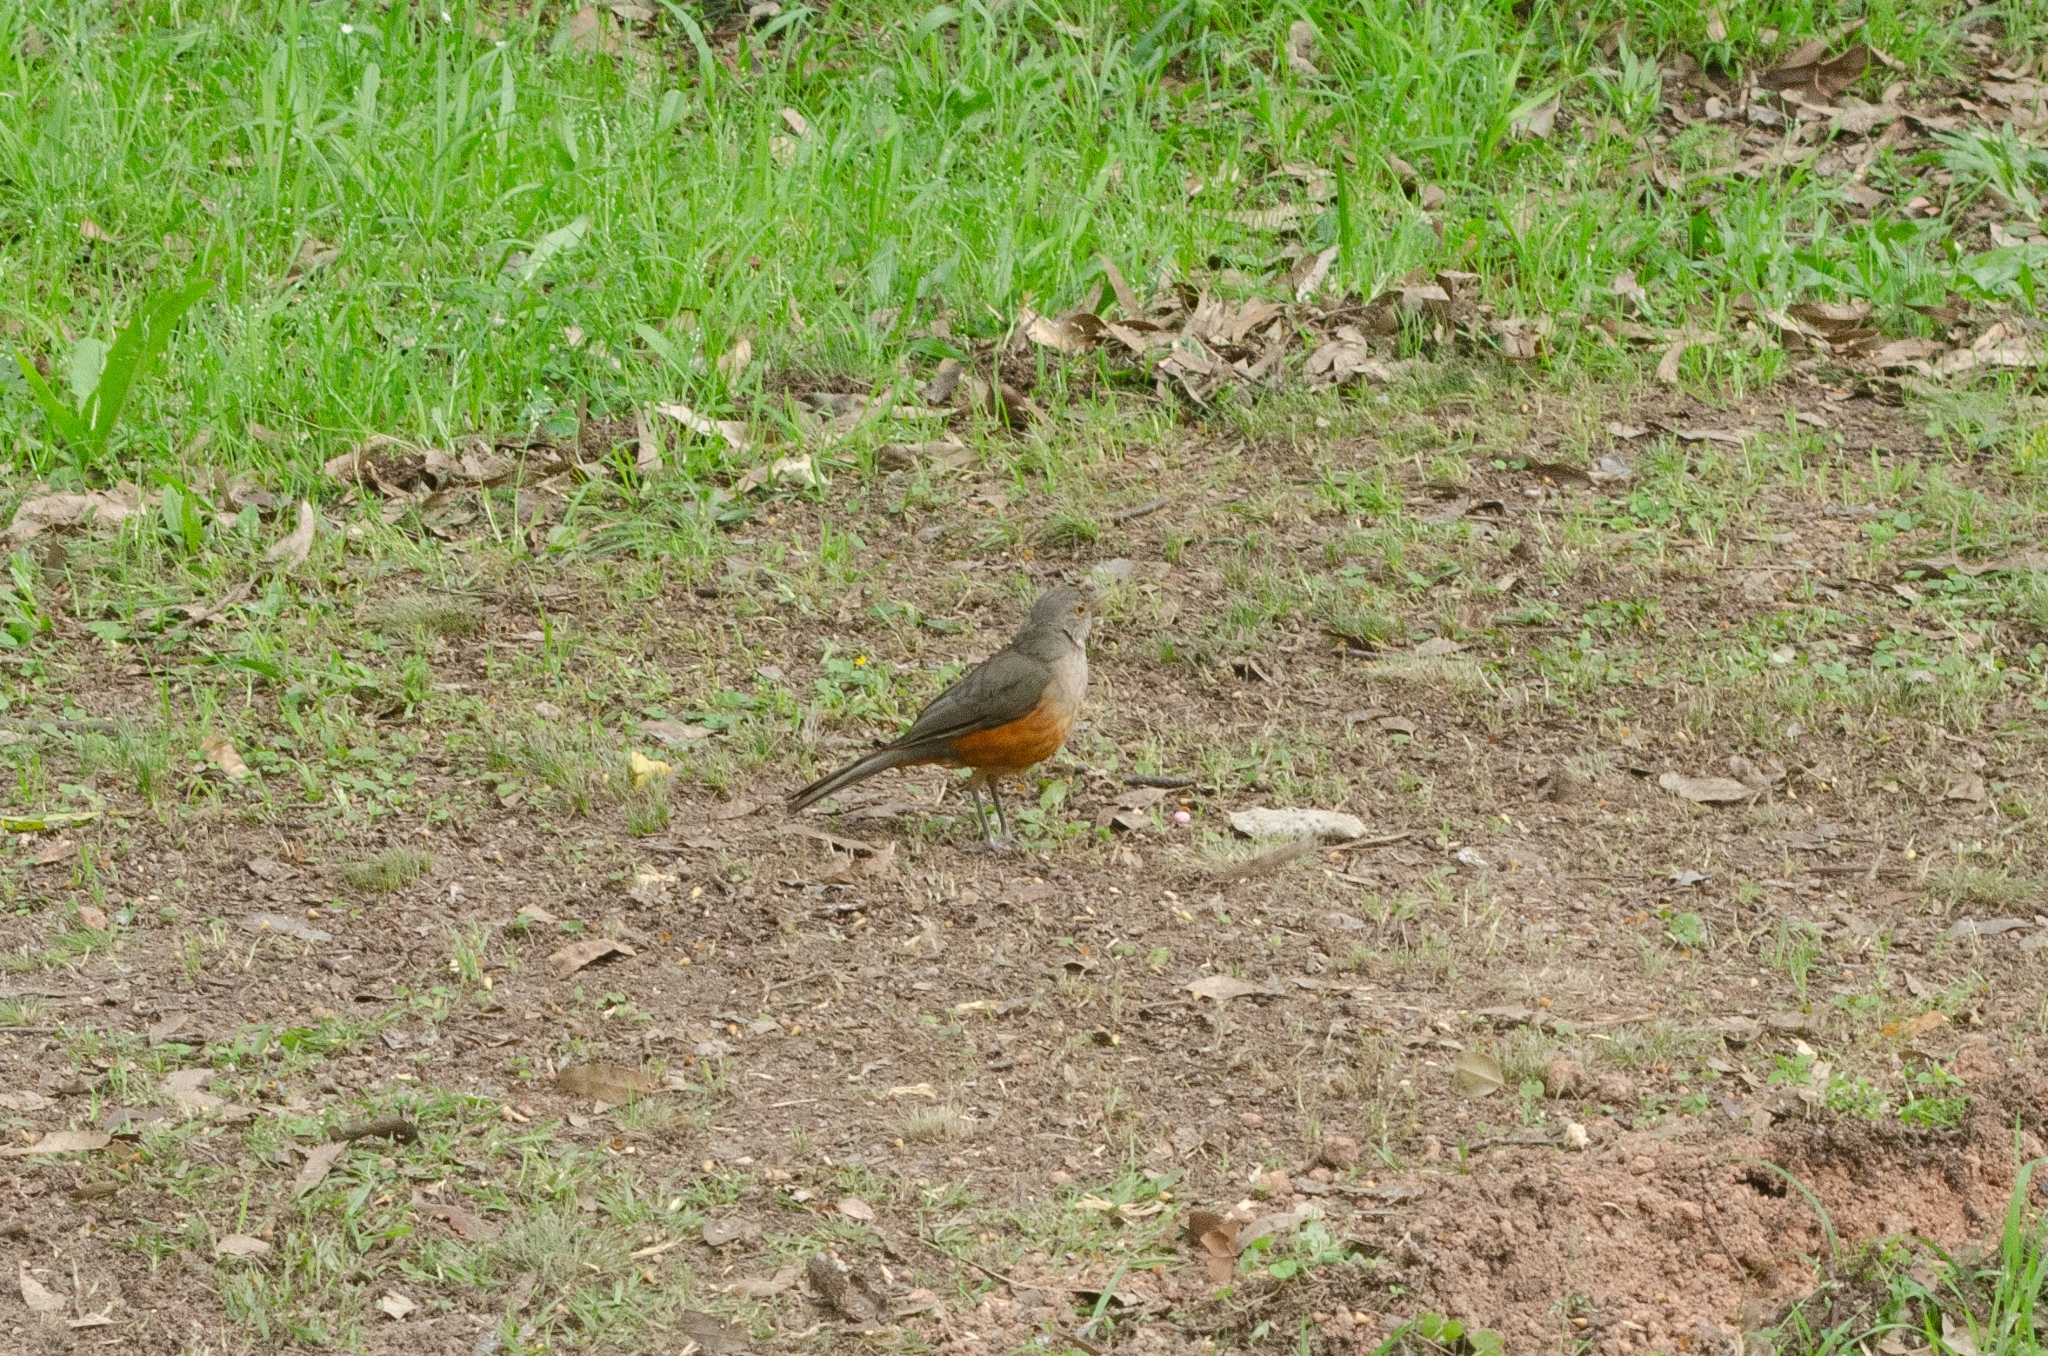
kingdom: Animalia
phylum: Chordata
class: Aves
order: Passeriformes
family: Turdidae
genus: Turdus
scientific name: Turdus rufiventris
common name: Rufous-bellied thrush
